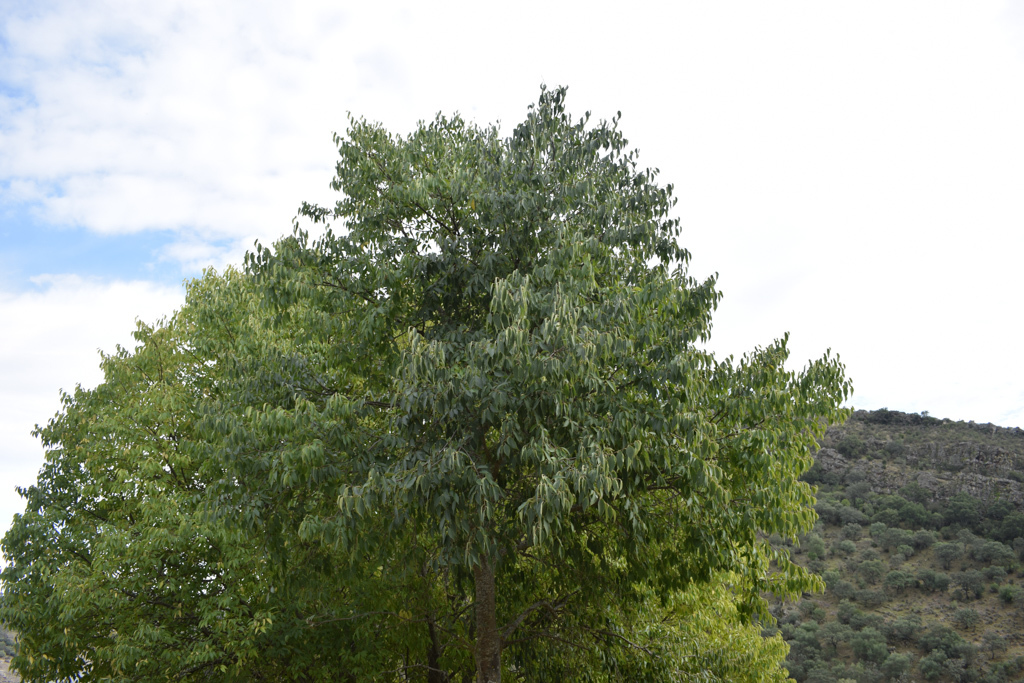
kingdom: Plantae
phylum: Tracheophyta
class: Magnoliopsida
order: Rosales
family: Cannabaceae
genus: Celtis
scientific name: Celtis australis
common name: European hackberry
